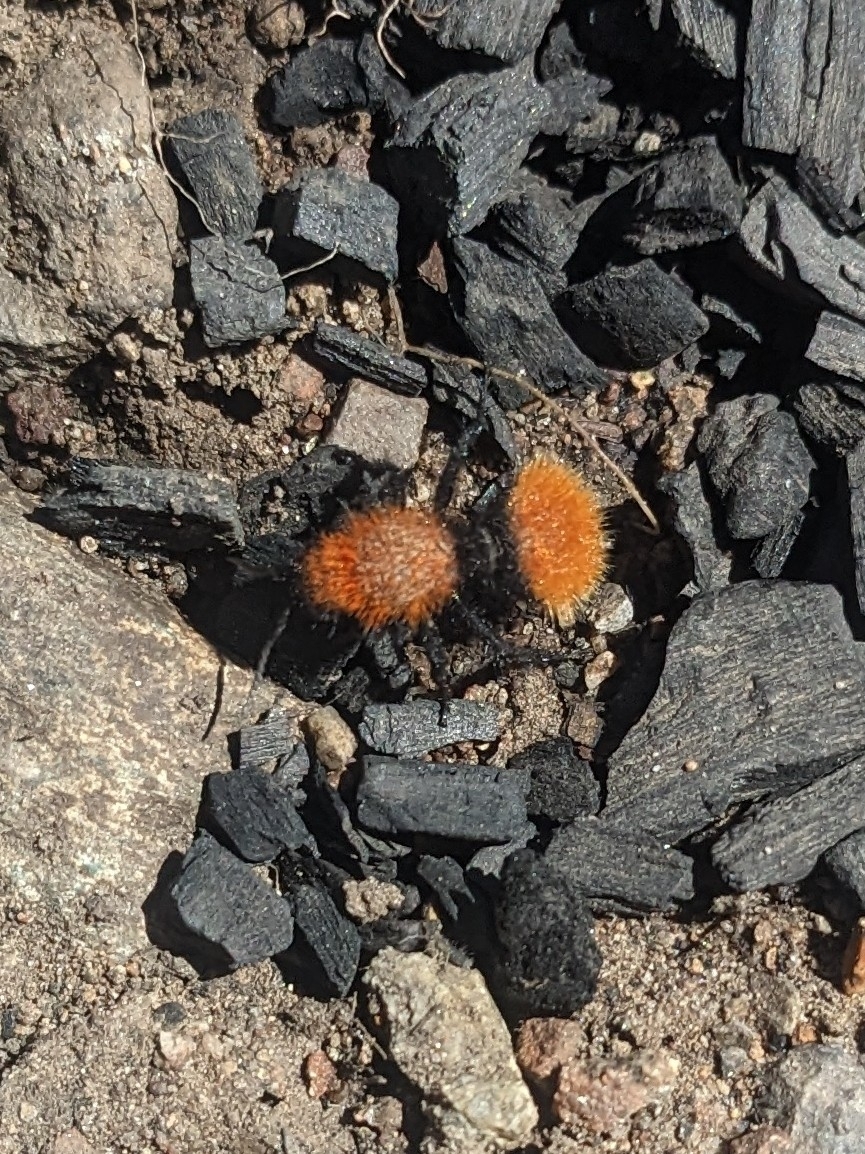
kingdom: Animalia
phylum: Arthropoda
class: Insecta
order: Hymenoptera
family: Mutillidae
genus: Dasymutilla
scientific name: Dasymutilla vestita
